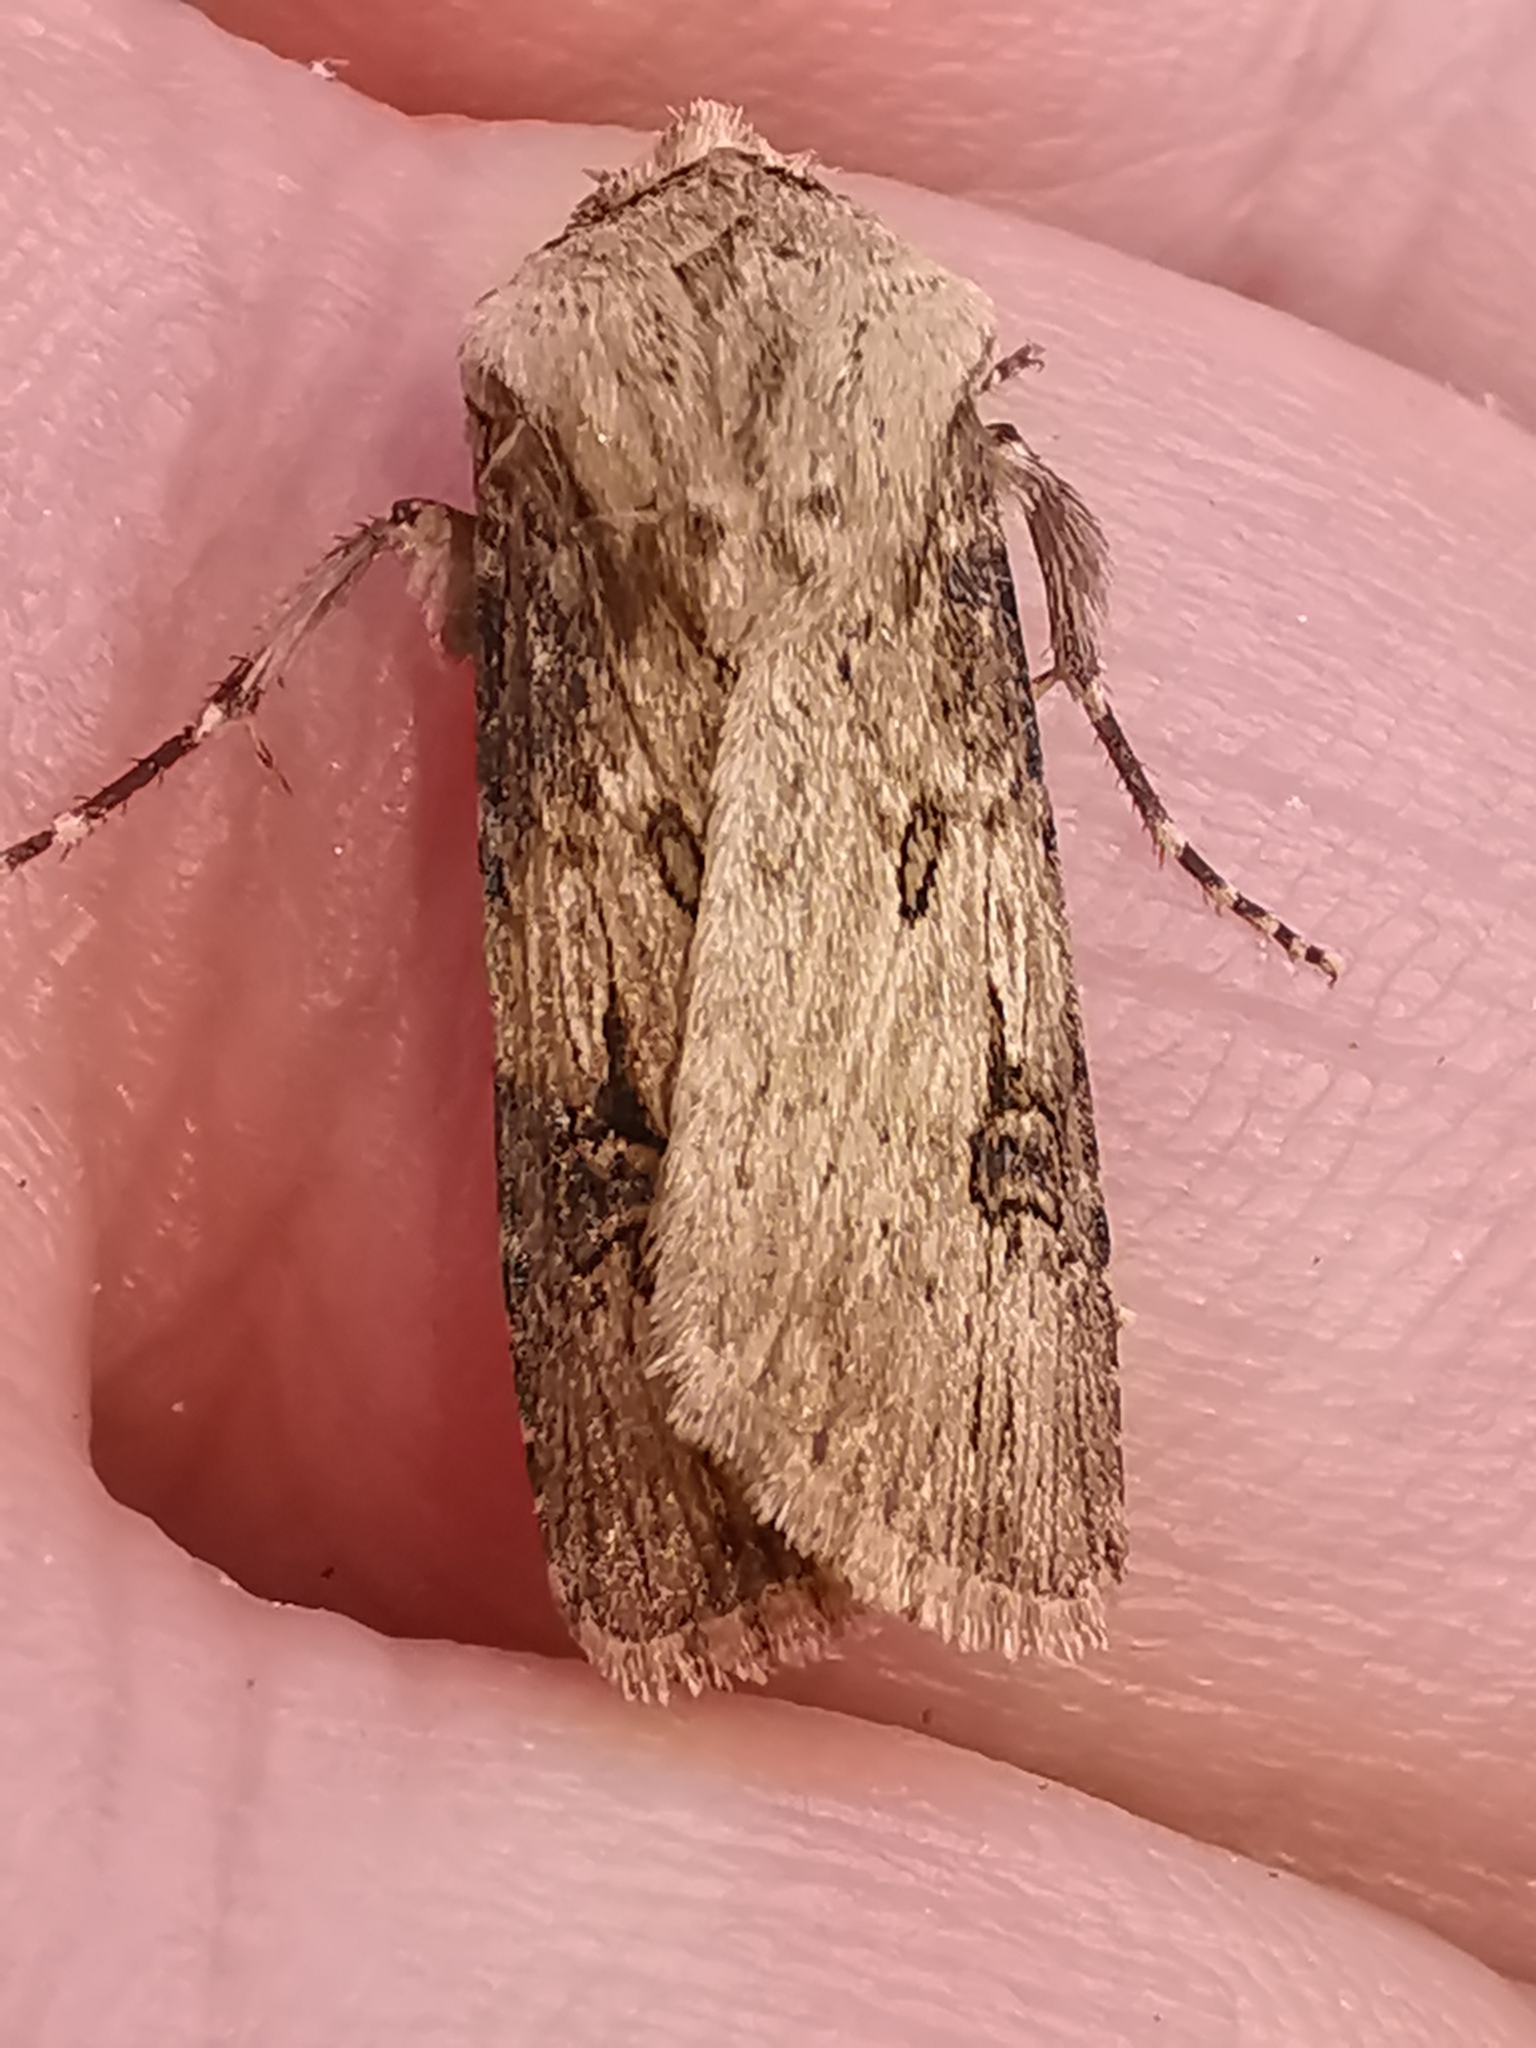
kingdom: Animalia
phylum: Arthropoda
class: Insecta
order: Lepidoptera
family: Noctuidae
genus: Agrotis
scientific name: Agrotis puta
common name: Shuttle-shaped dart
